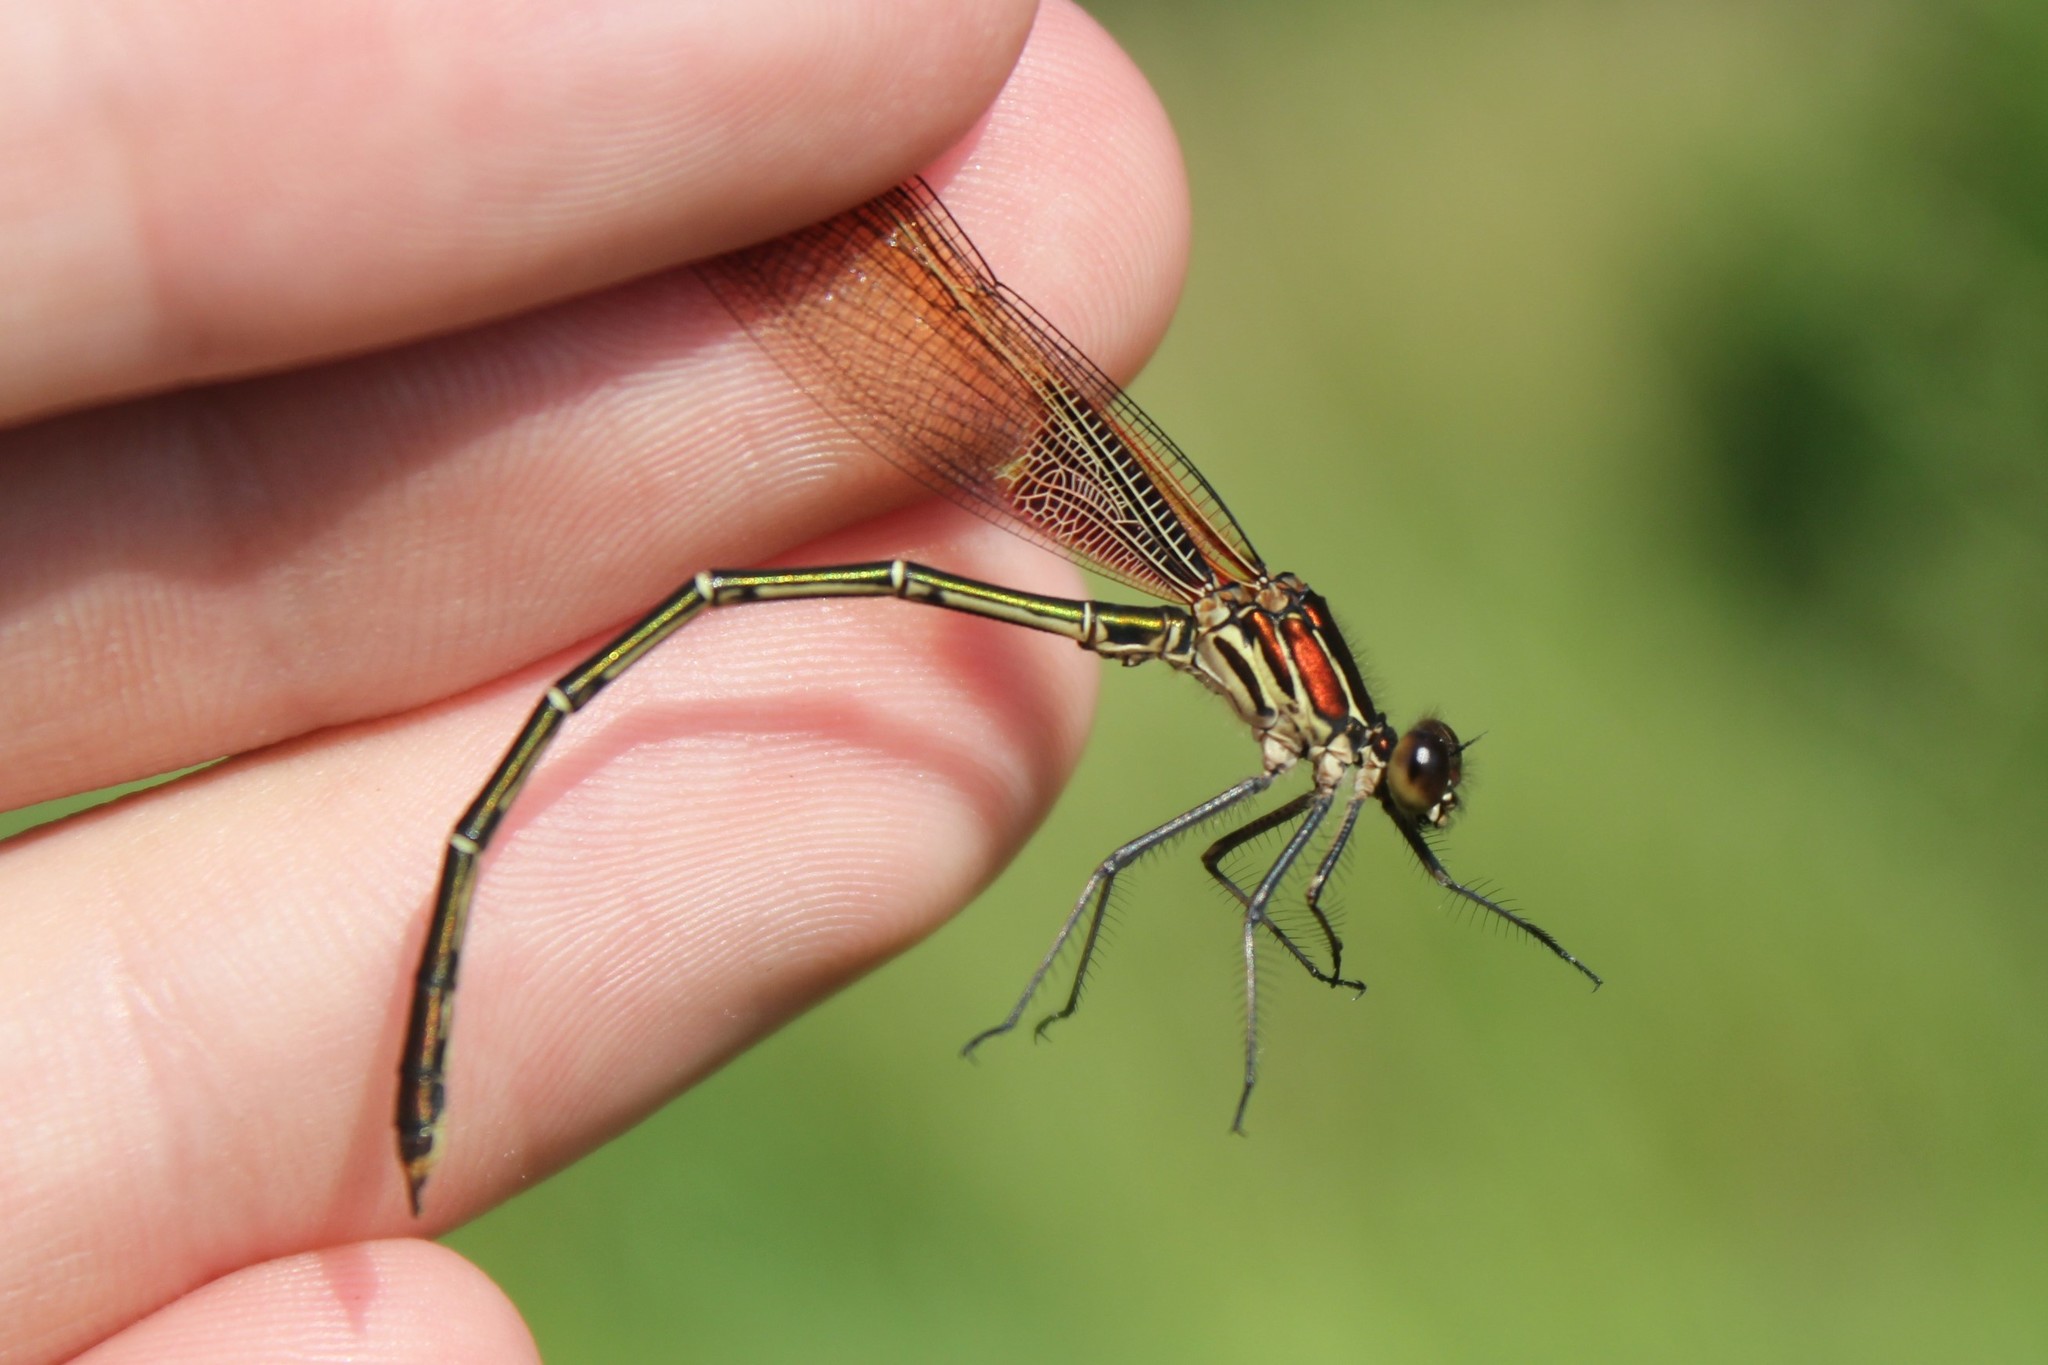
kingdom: Animalia
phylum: Arthropoda
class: Insecta
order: Odonata
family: Calopterygidae
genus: Hetaerina
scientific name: Hetaerina americana
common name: American rubyspot
